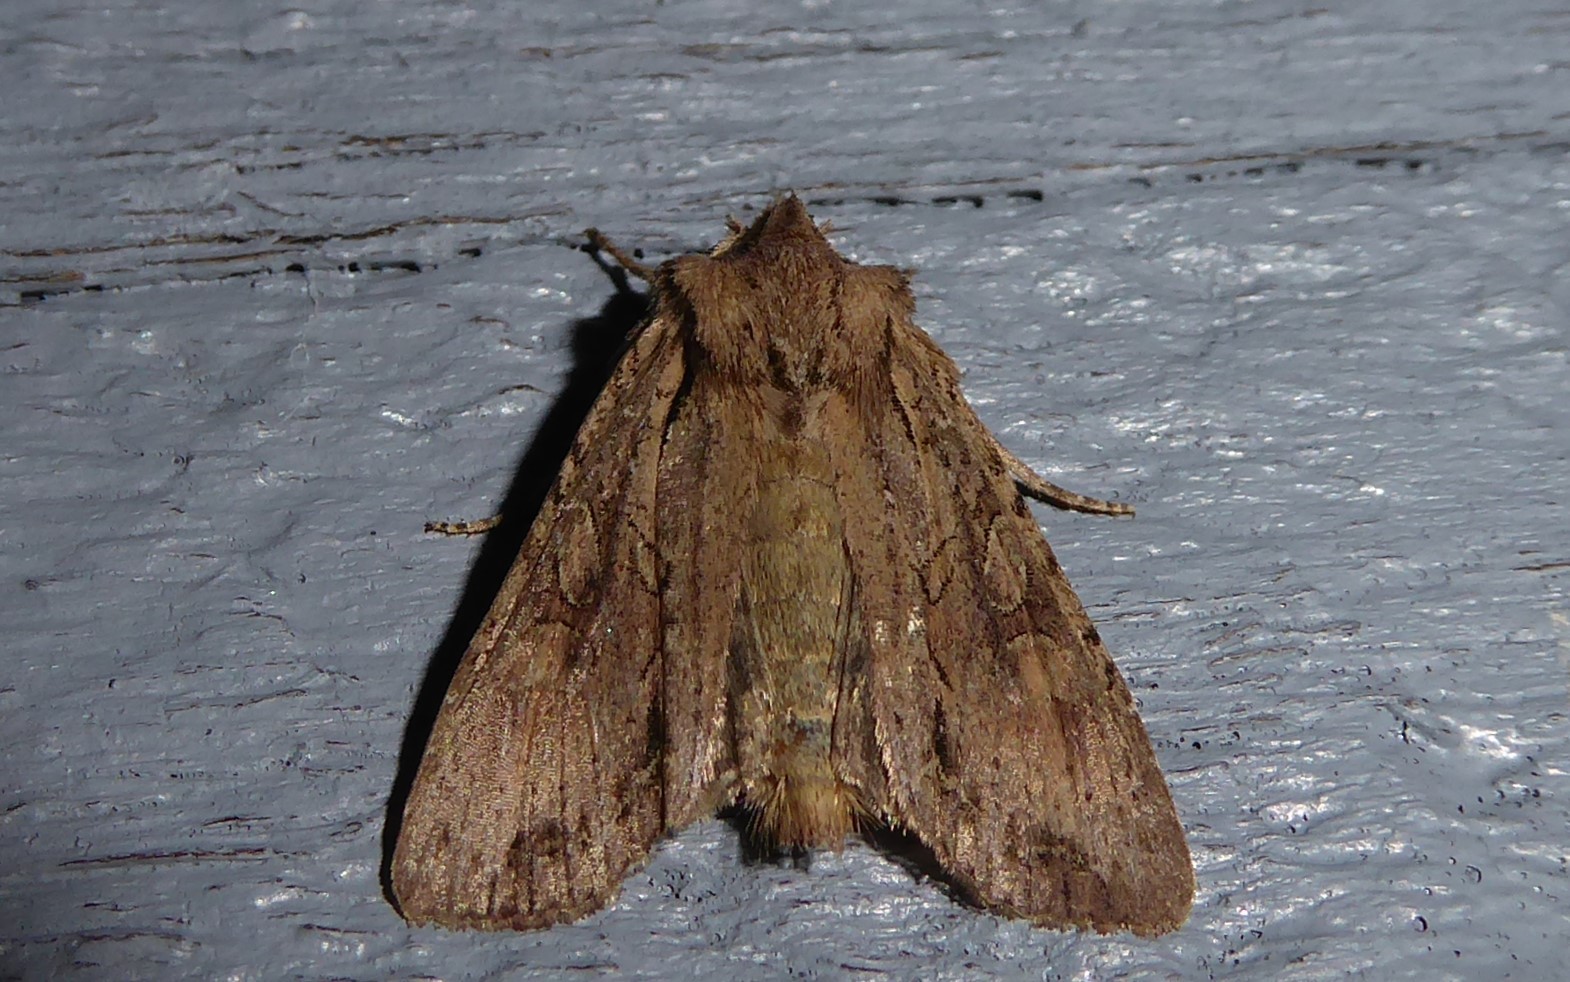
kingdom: Animalia
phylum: Arthropoda
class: Insecta
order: Lepidoptera
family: Noctuidae
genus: Ichneutica
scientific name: Ichneutica
